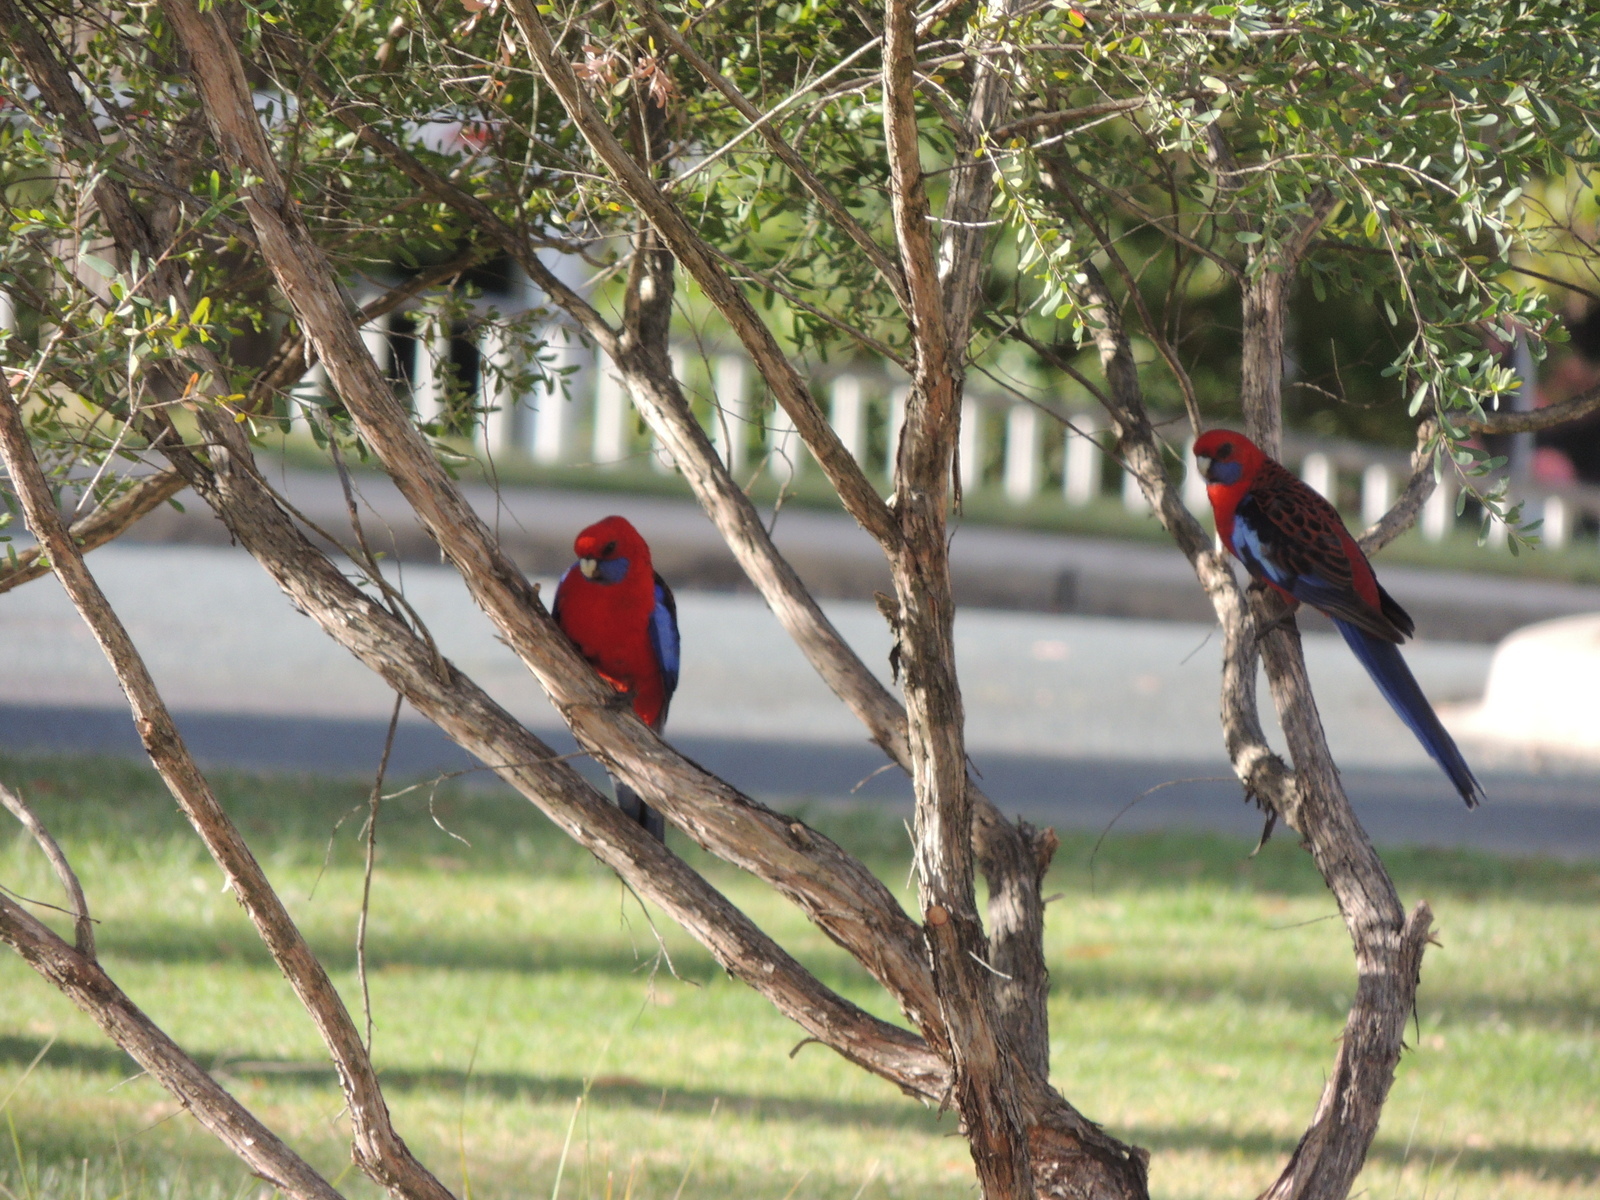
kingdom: Animalia
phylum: Chordata
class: Aves
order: Psittaciformes
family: Psittacidae
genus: Platycercus
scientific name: Platycercus elegans
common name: Crimson rosella
